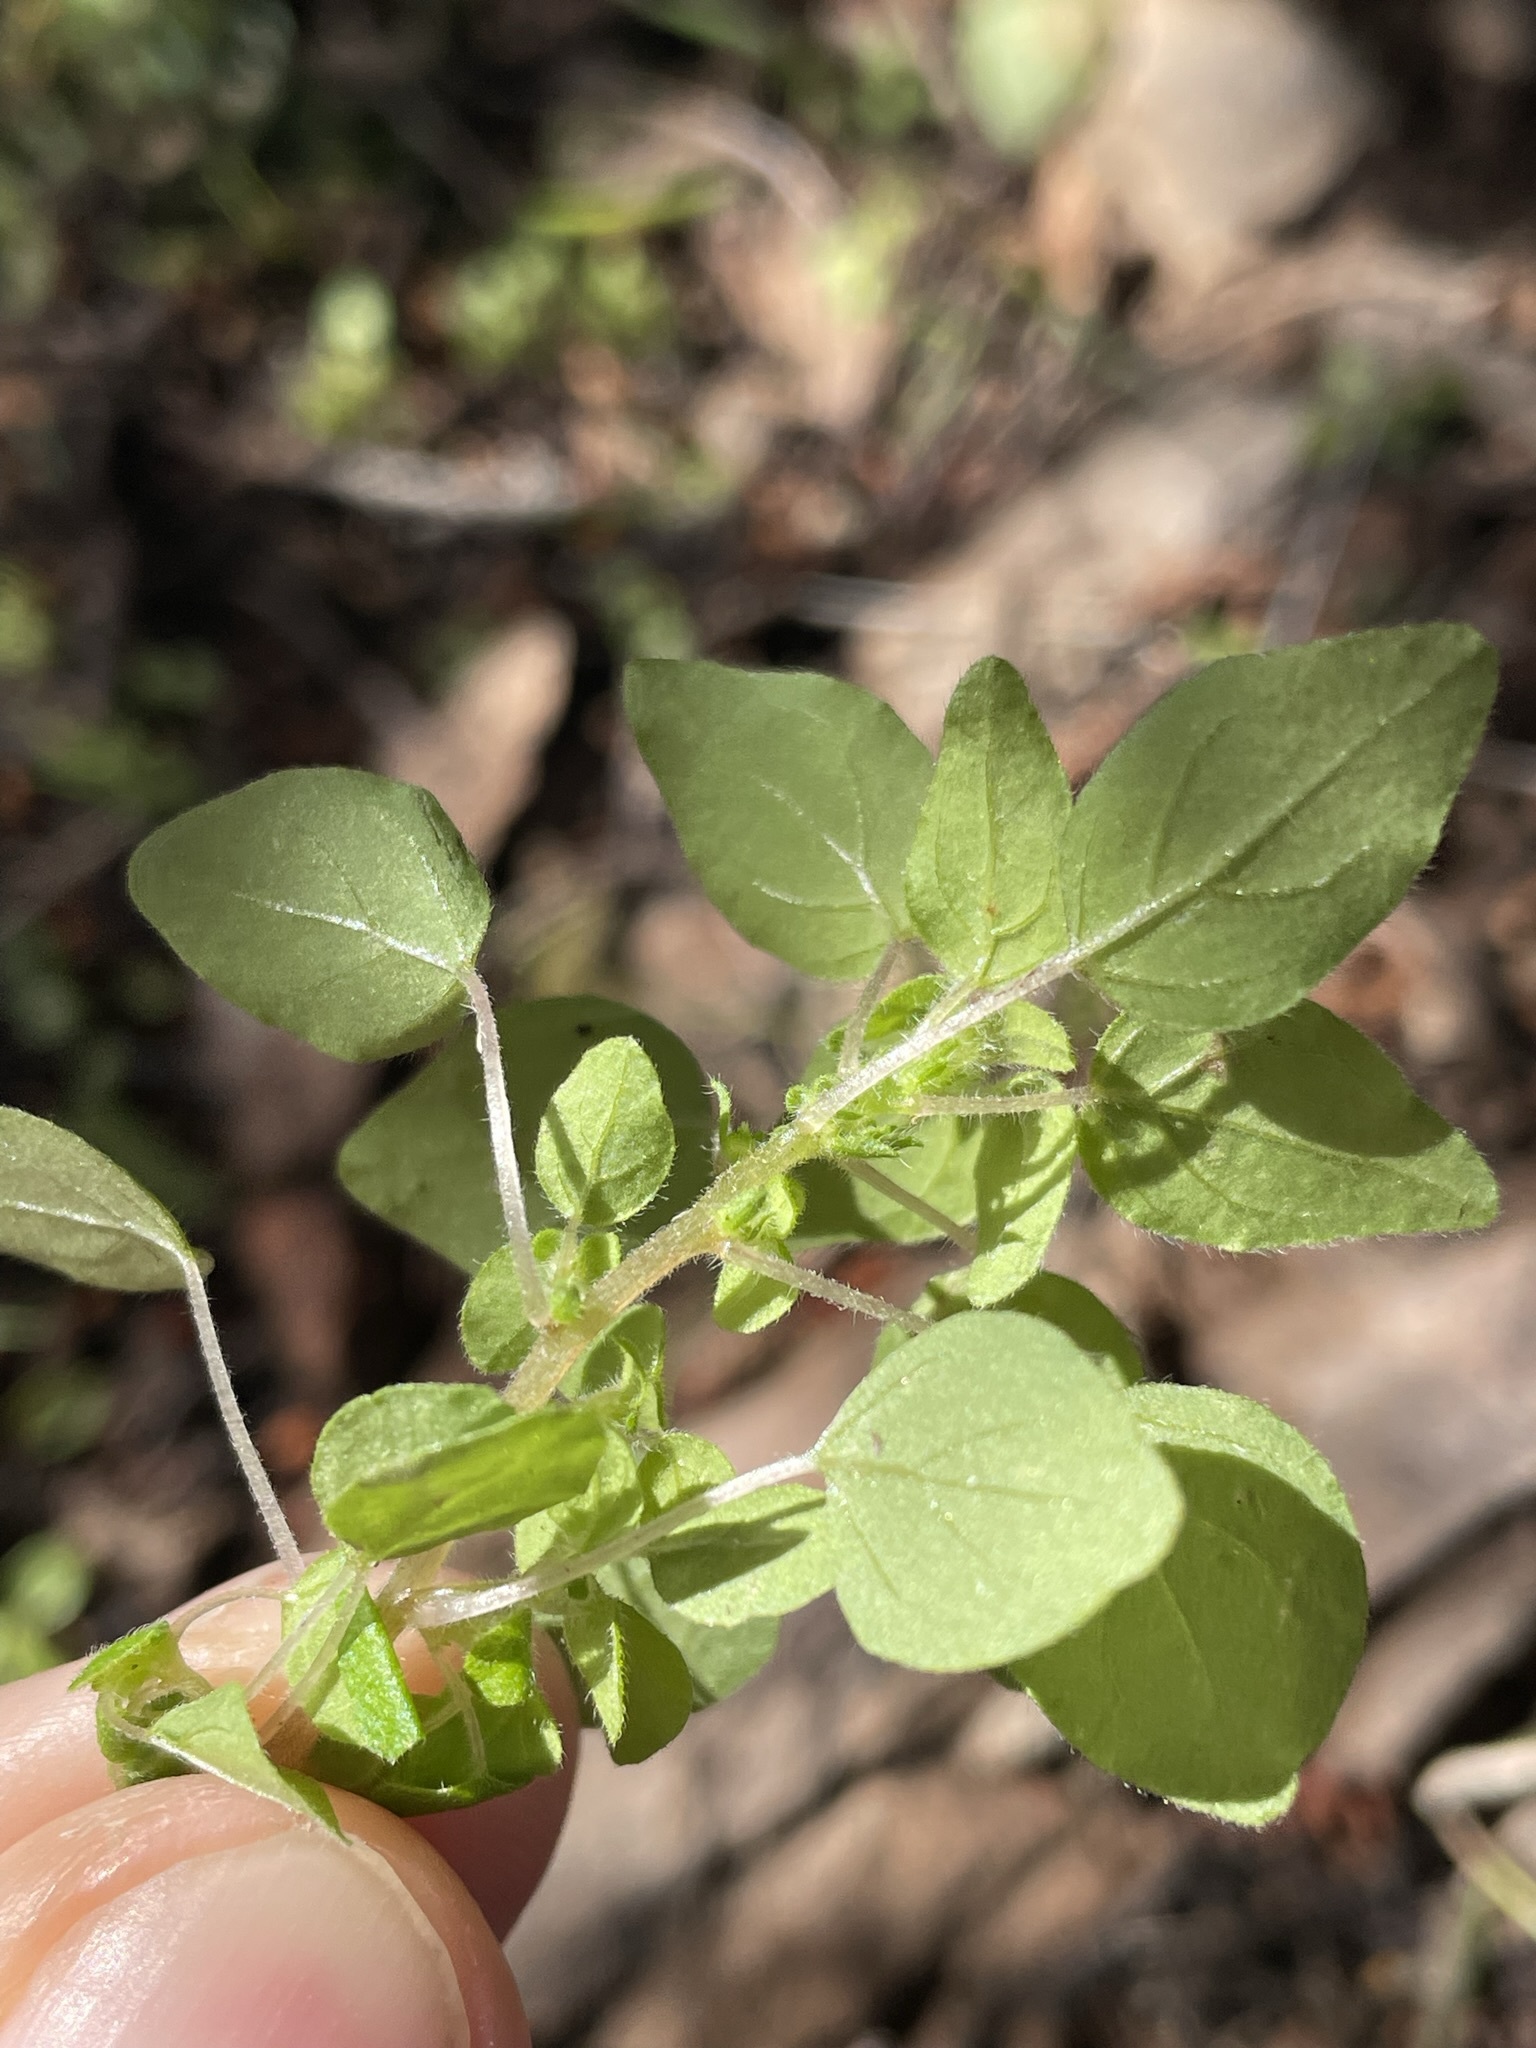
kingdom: Plantae
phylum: Tracheophyta
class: Magnoliopsida
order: Rosales
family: Urticaceae
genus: Parietaria
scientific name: Parietaria hespera
